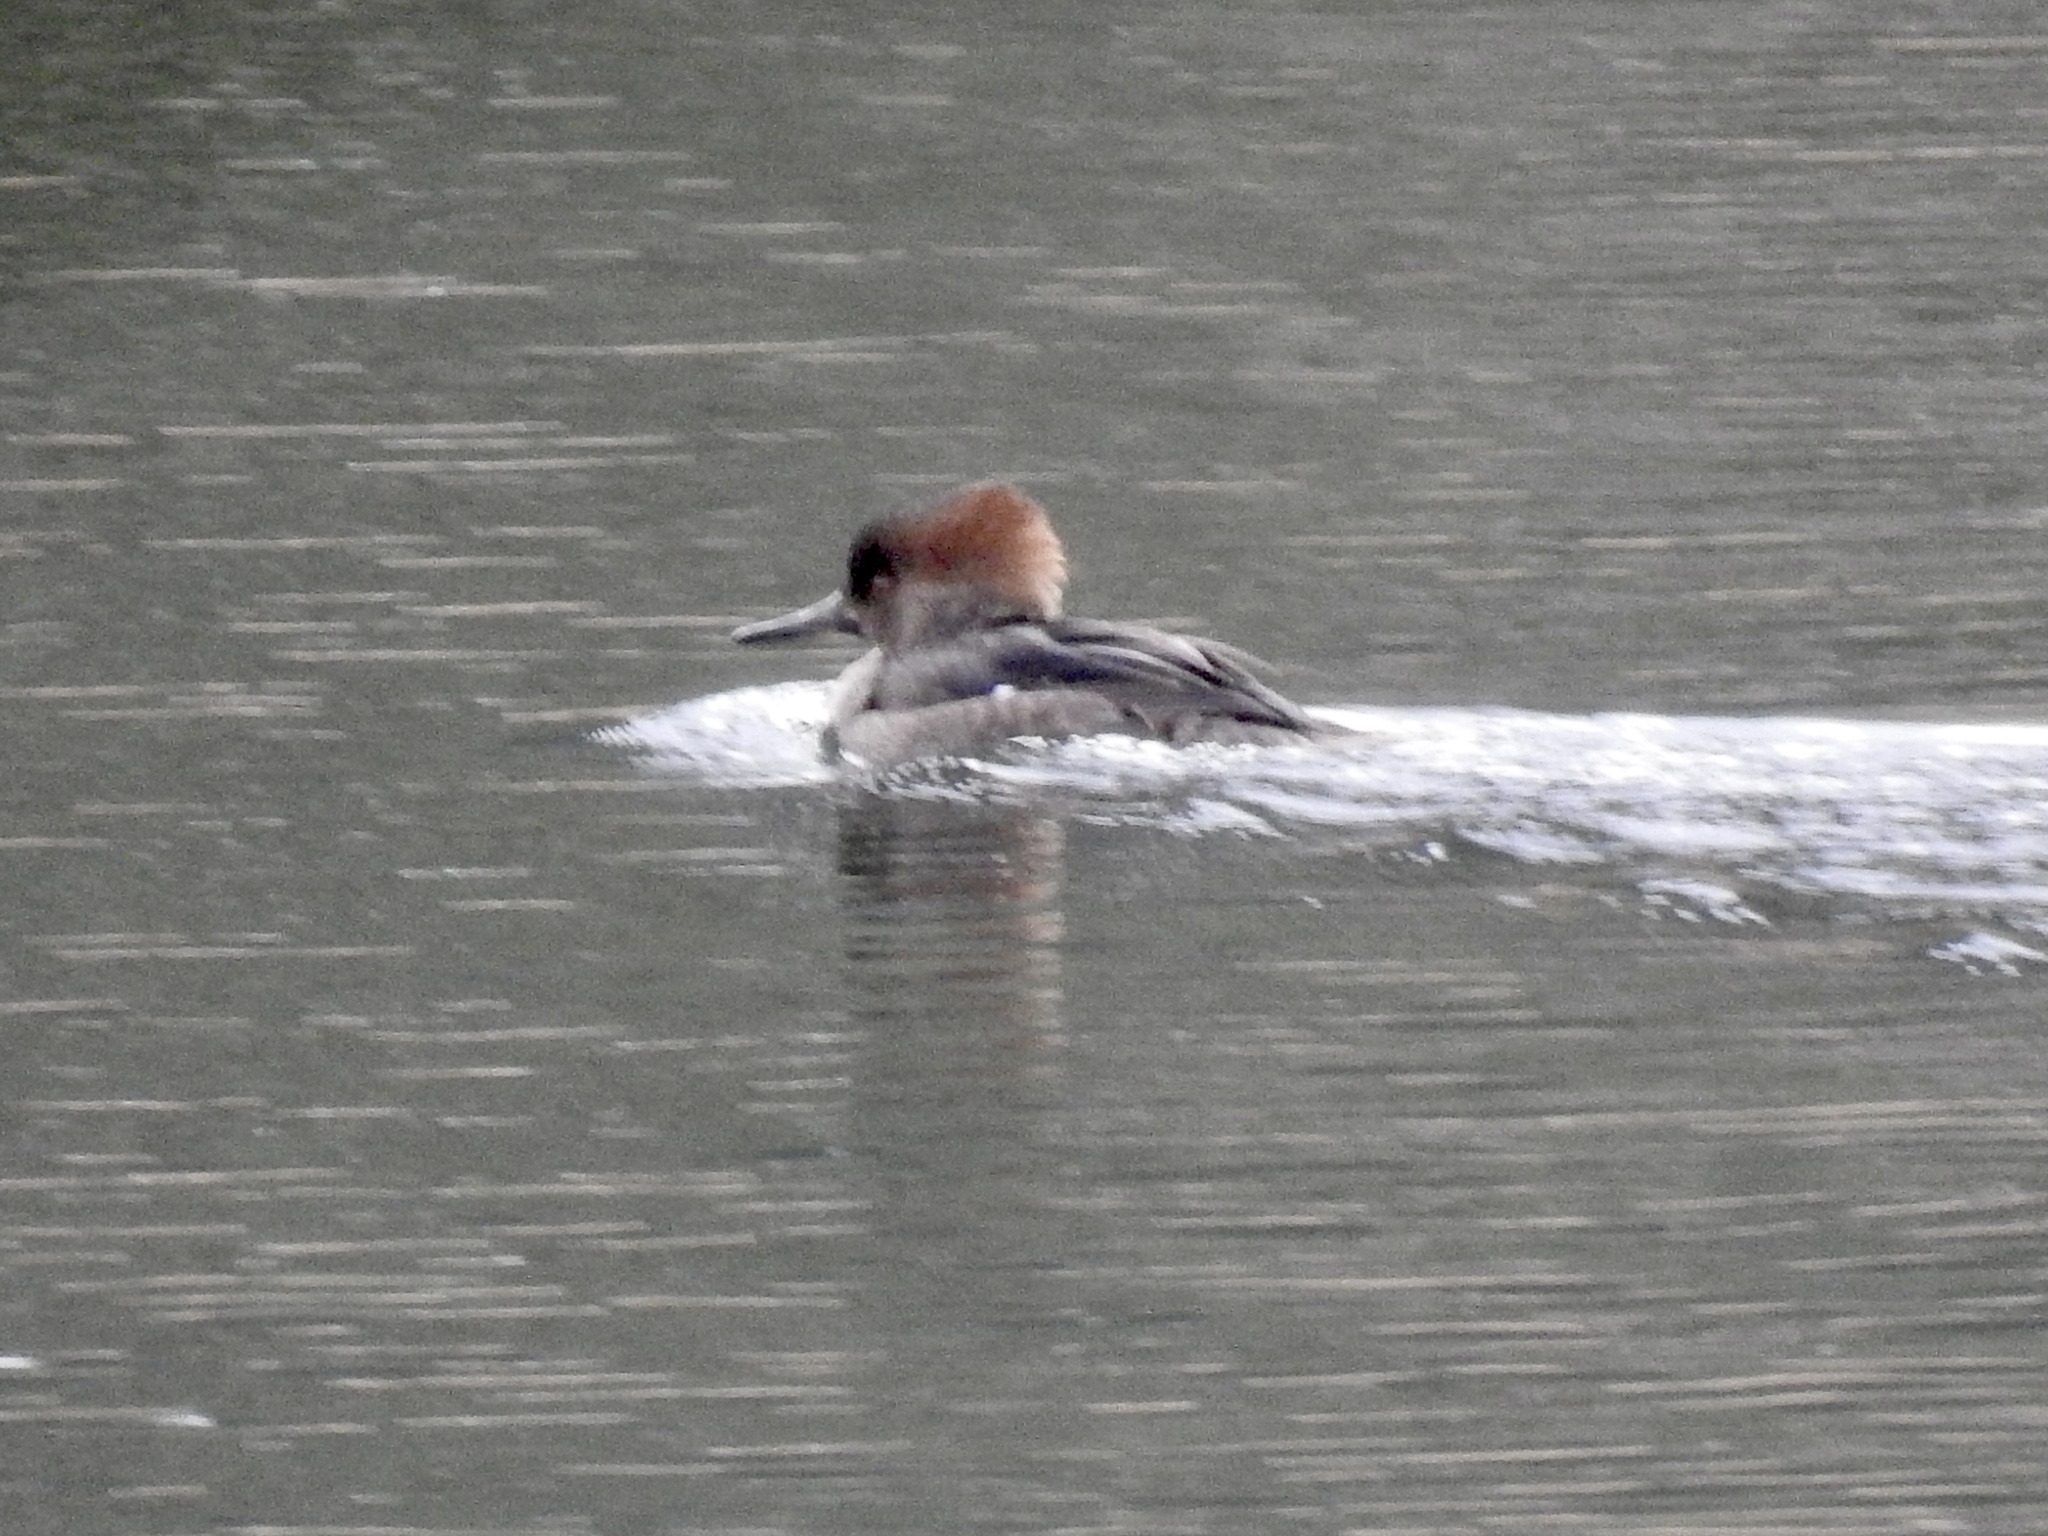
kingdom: Animalia
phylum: Chordata
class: Aves
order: Anseriformes
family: Anatidae
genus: Lophodytes
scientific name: Lophodytes cucullatus
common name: Hooded merganser
